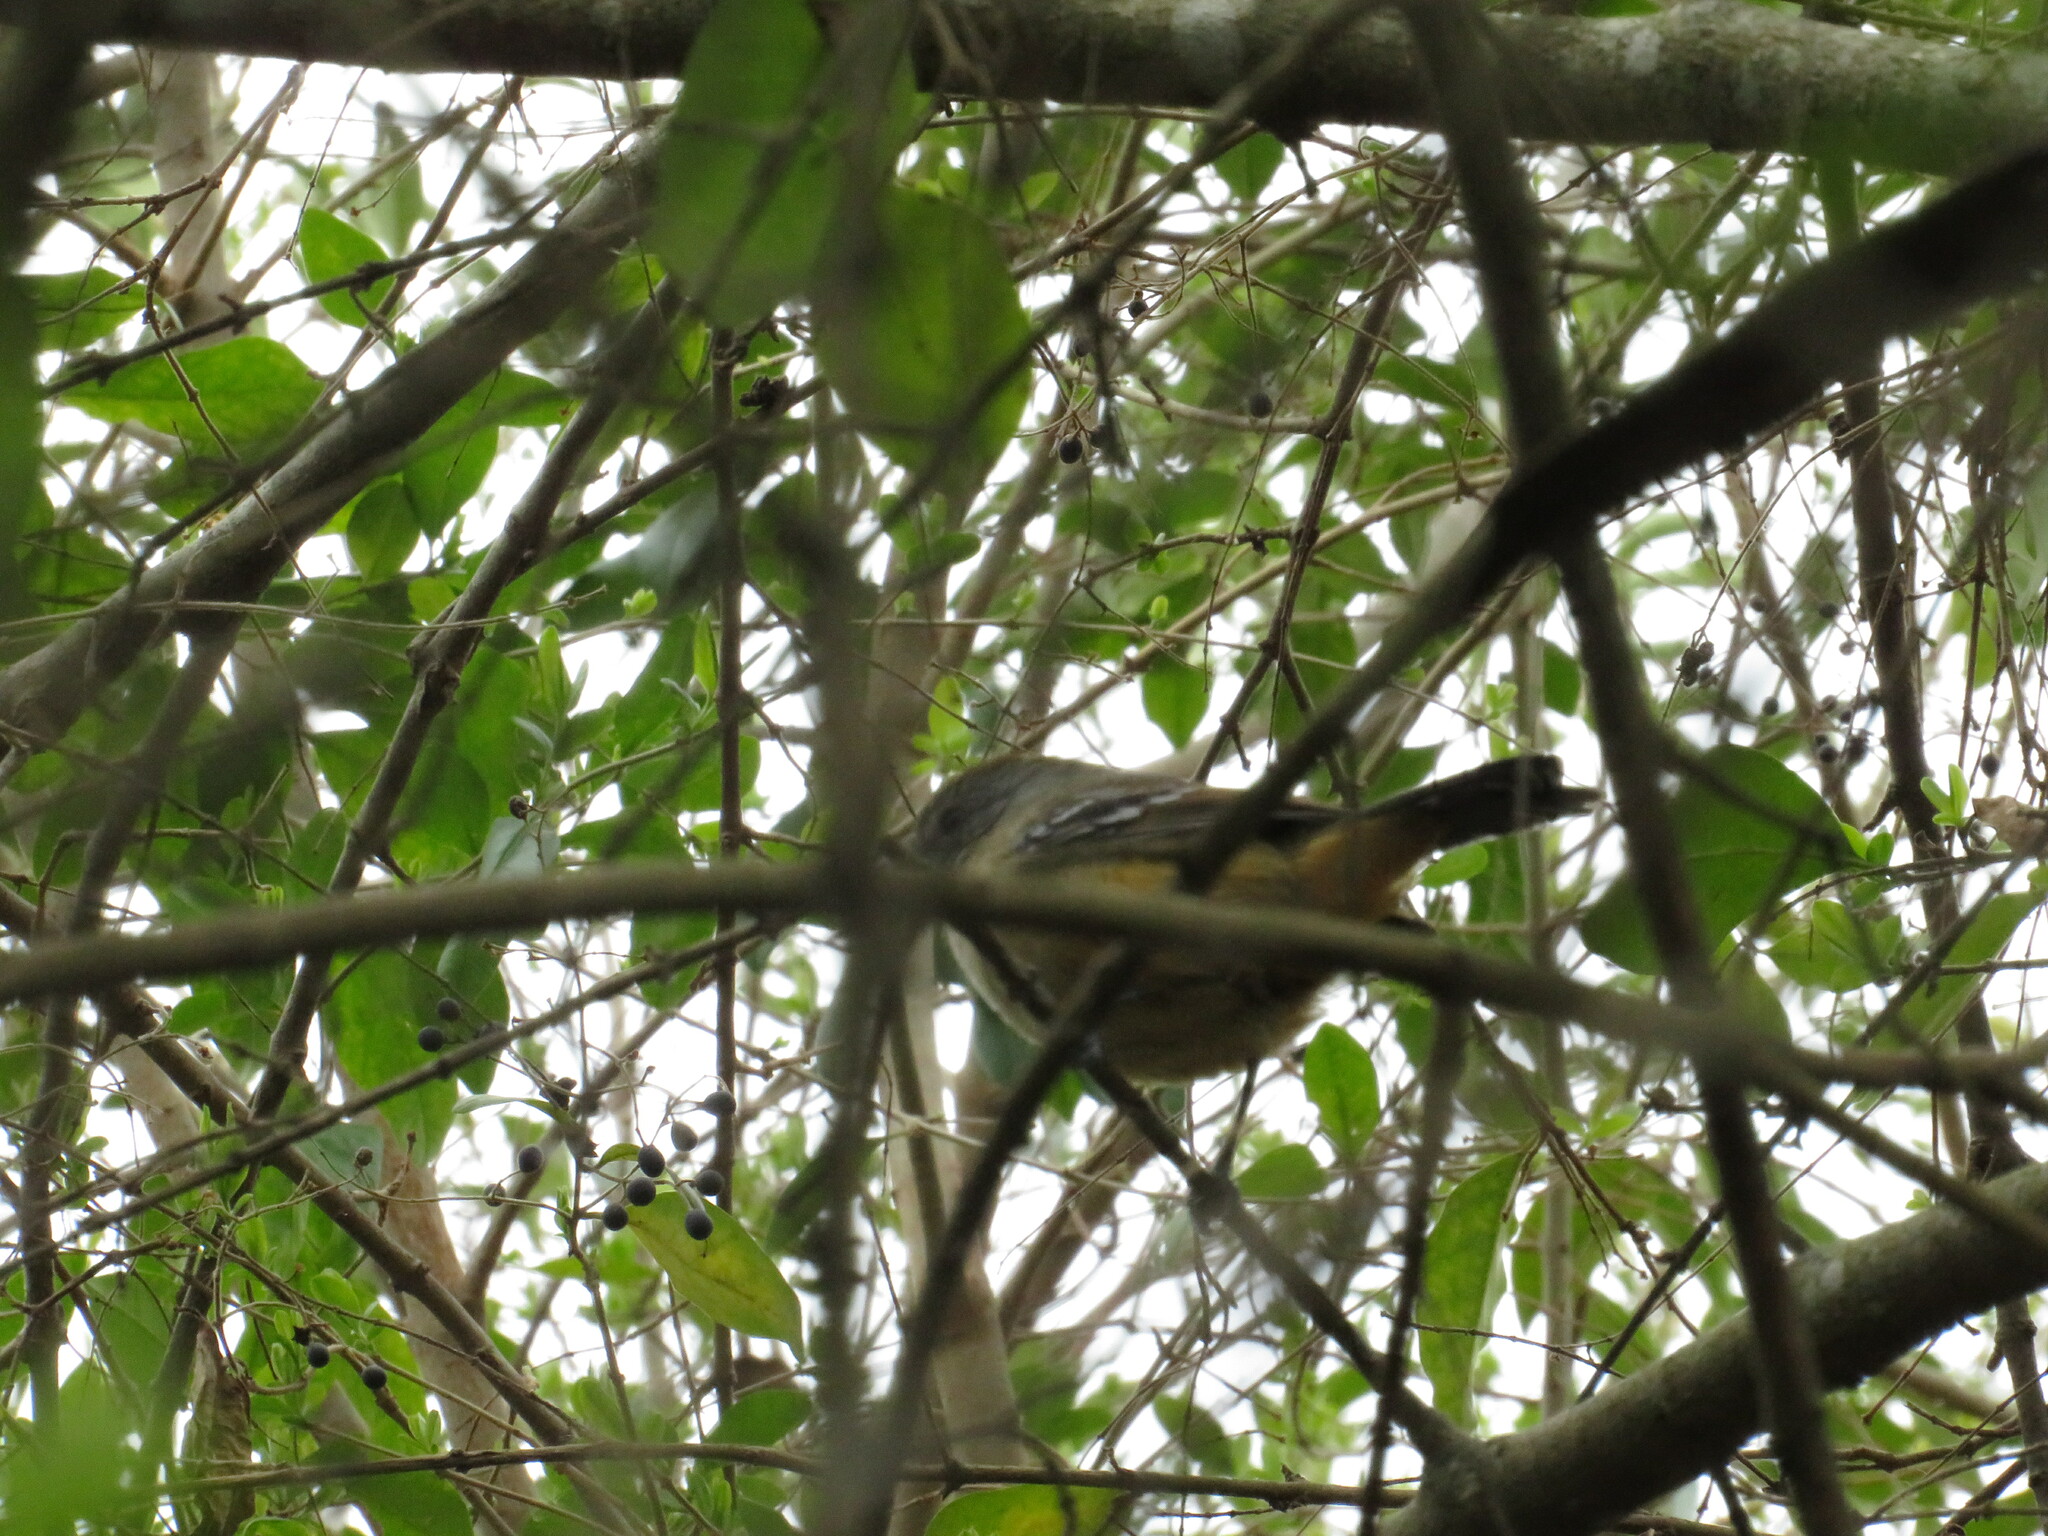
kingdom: Animalia
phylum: Chordata
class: Aves
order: Passeriformes
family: Thamnophilidae
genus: Thamnophilus
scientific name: Thamnophilus caerulescens
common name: Variable antshrike
